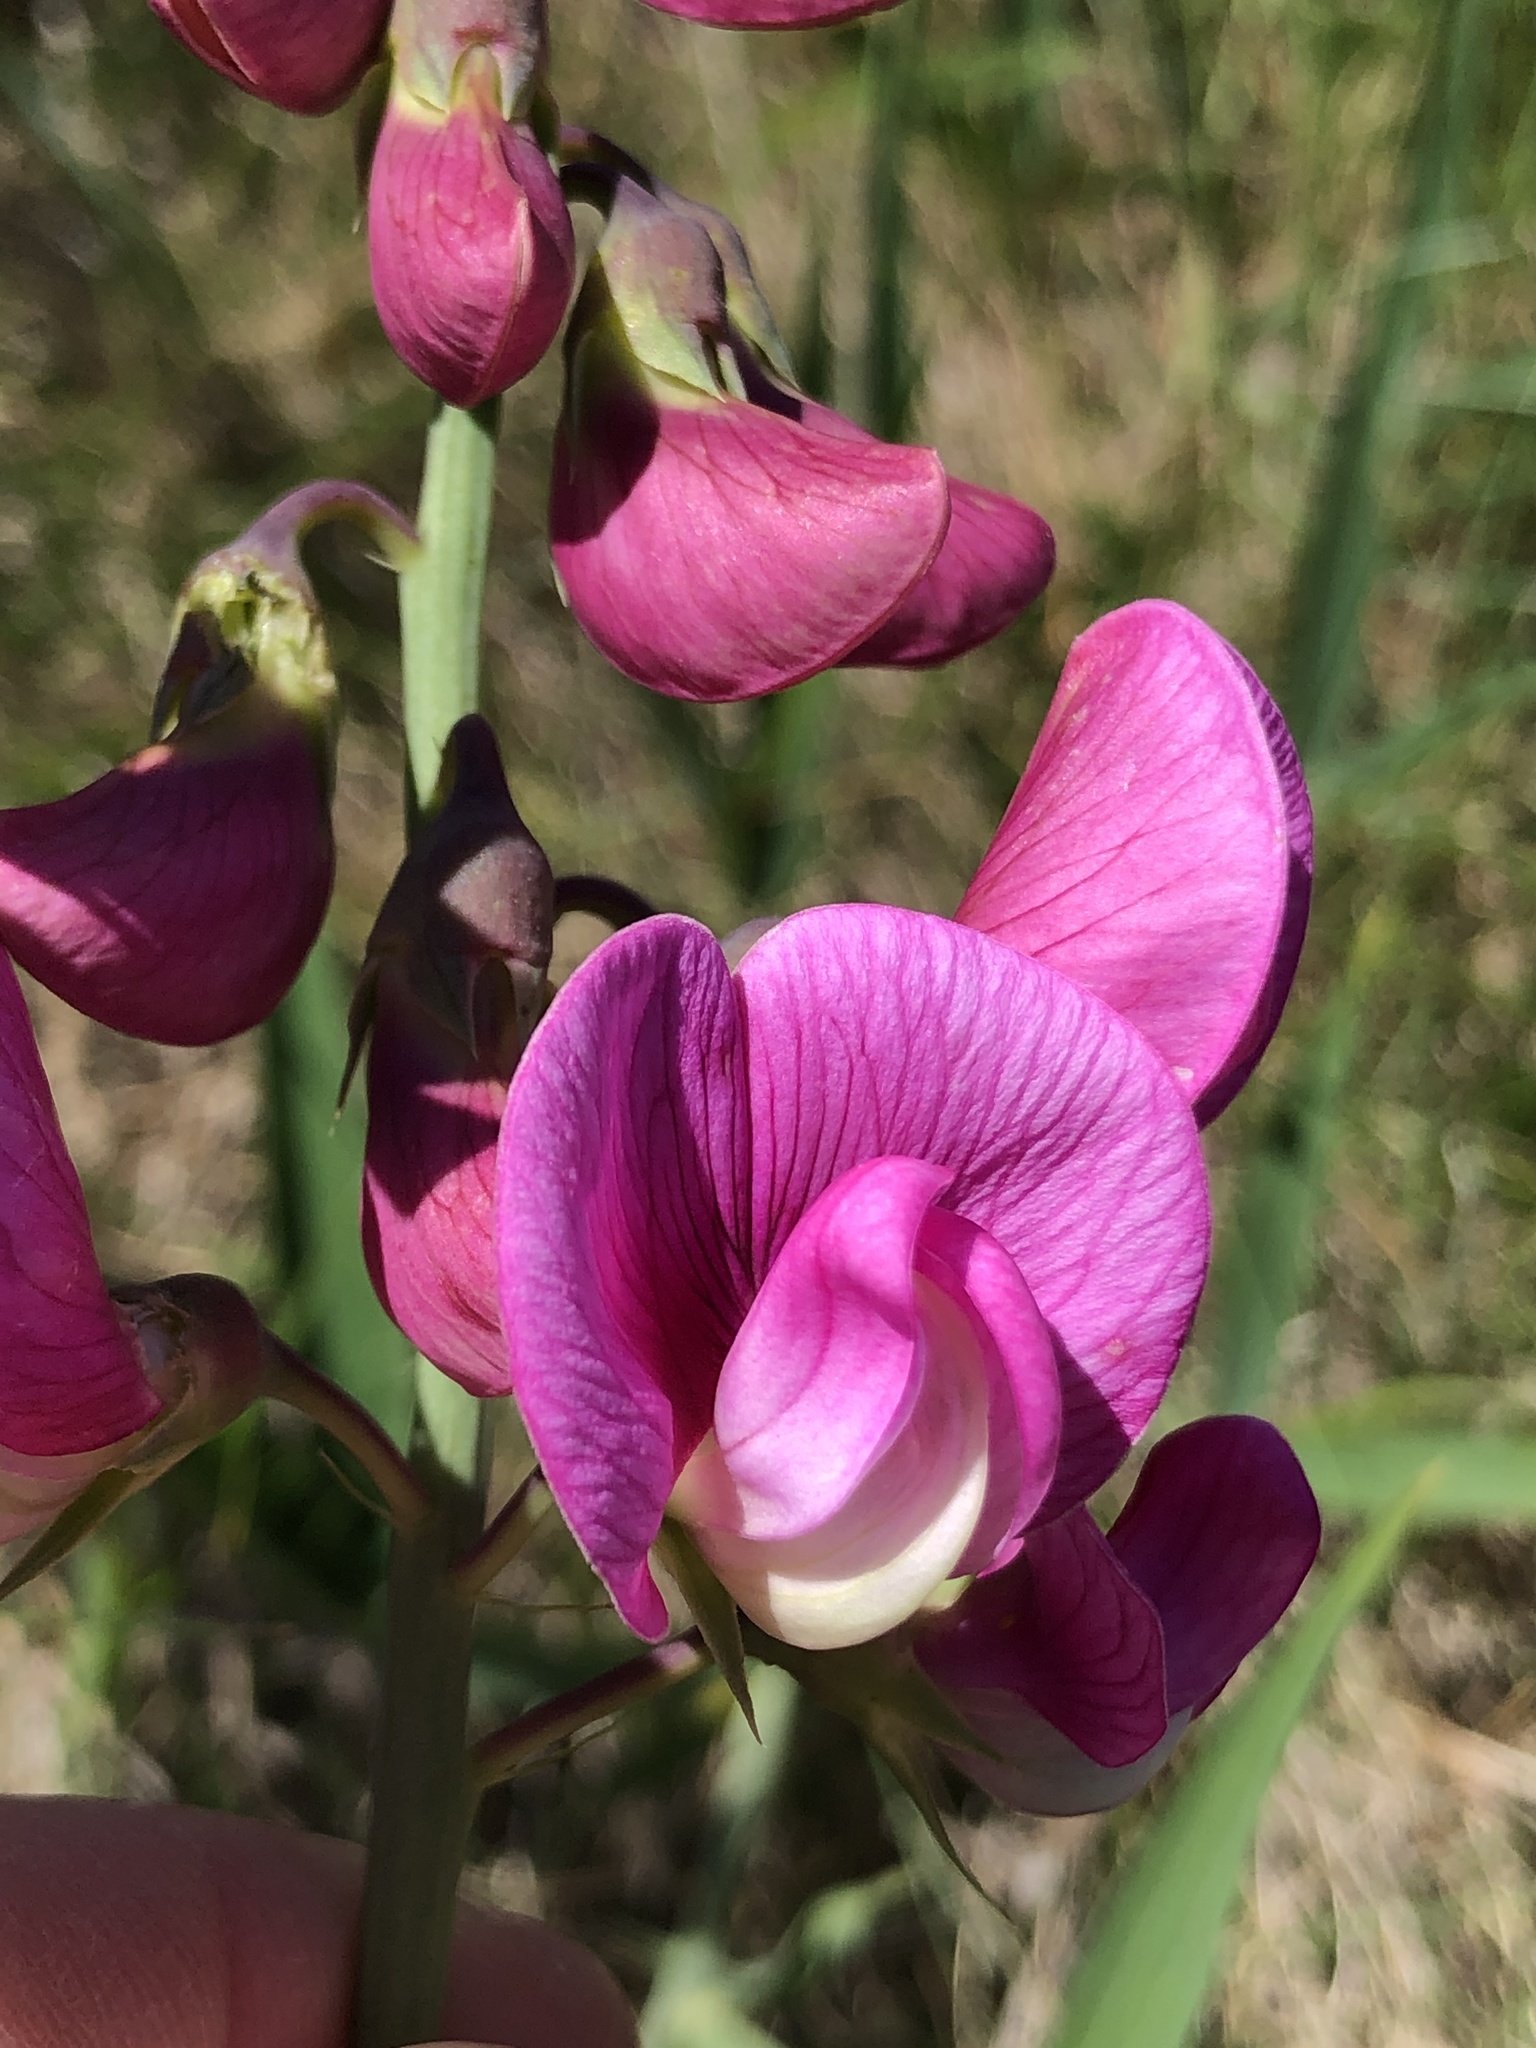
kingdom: Plantae
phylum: Tracheophyta
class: Magnoliopsida
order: Fabales
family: Fabaceae
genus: Lathyrus
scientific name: Lathyrus latifolius
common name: Perennial pea
